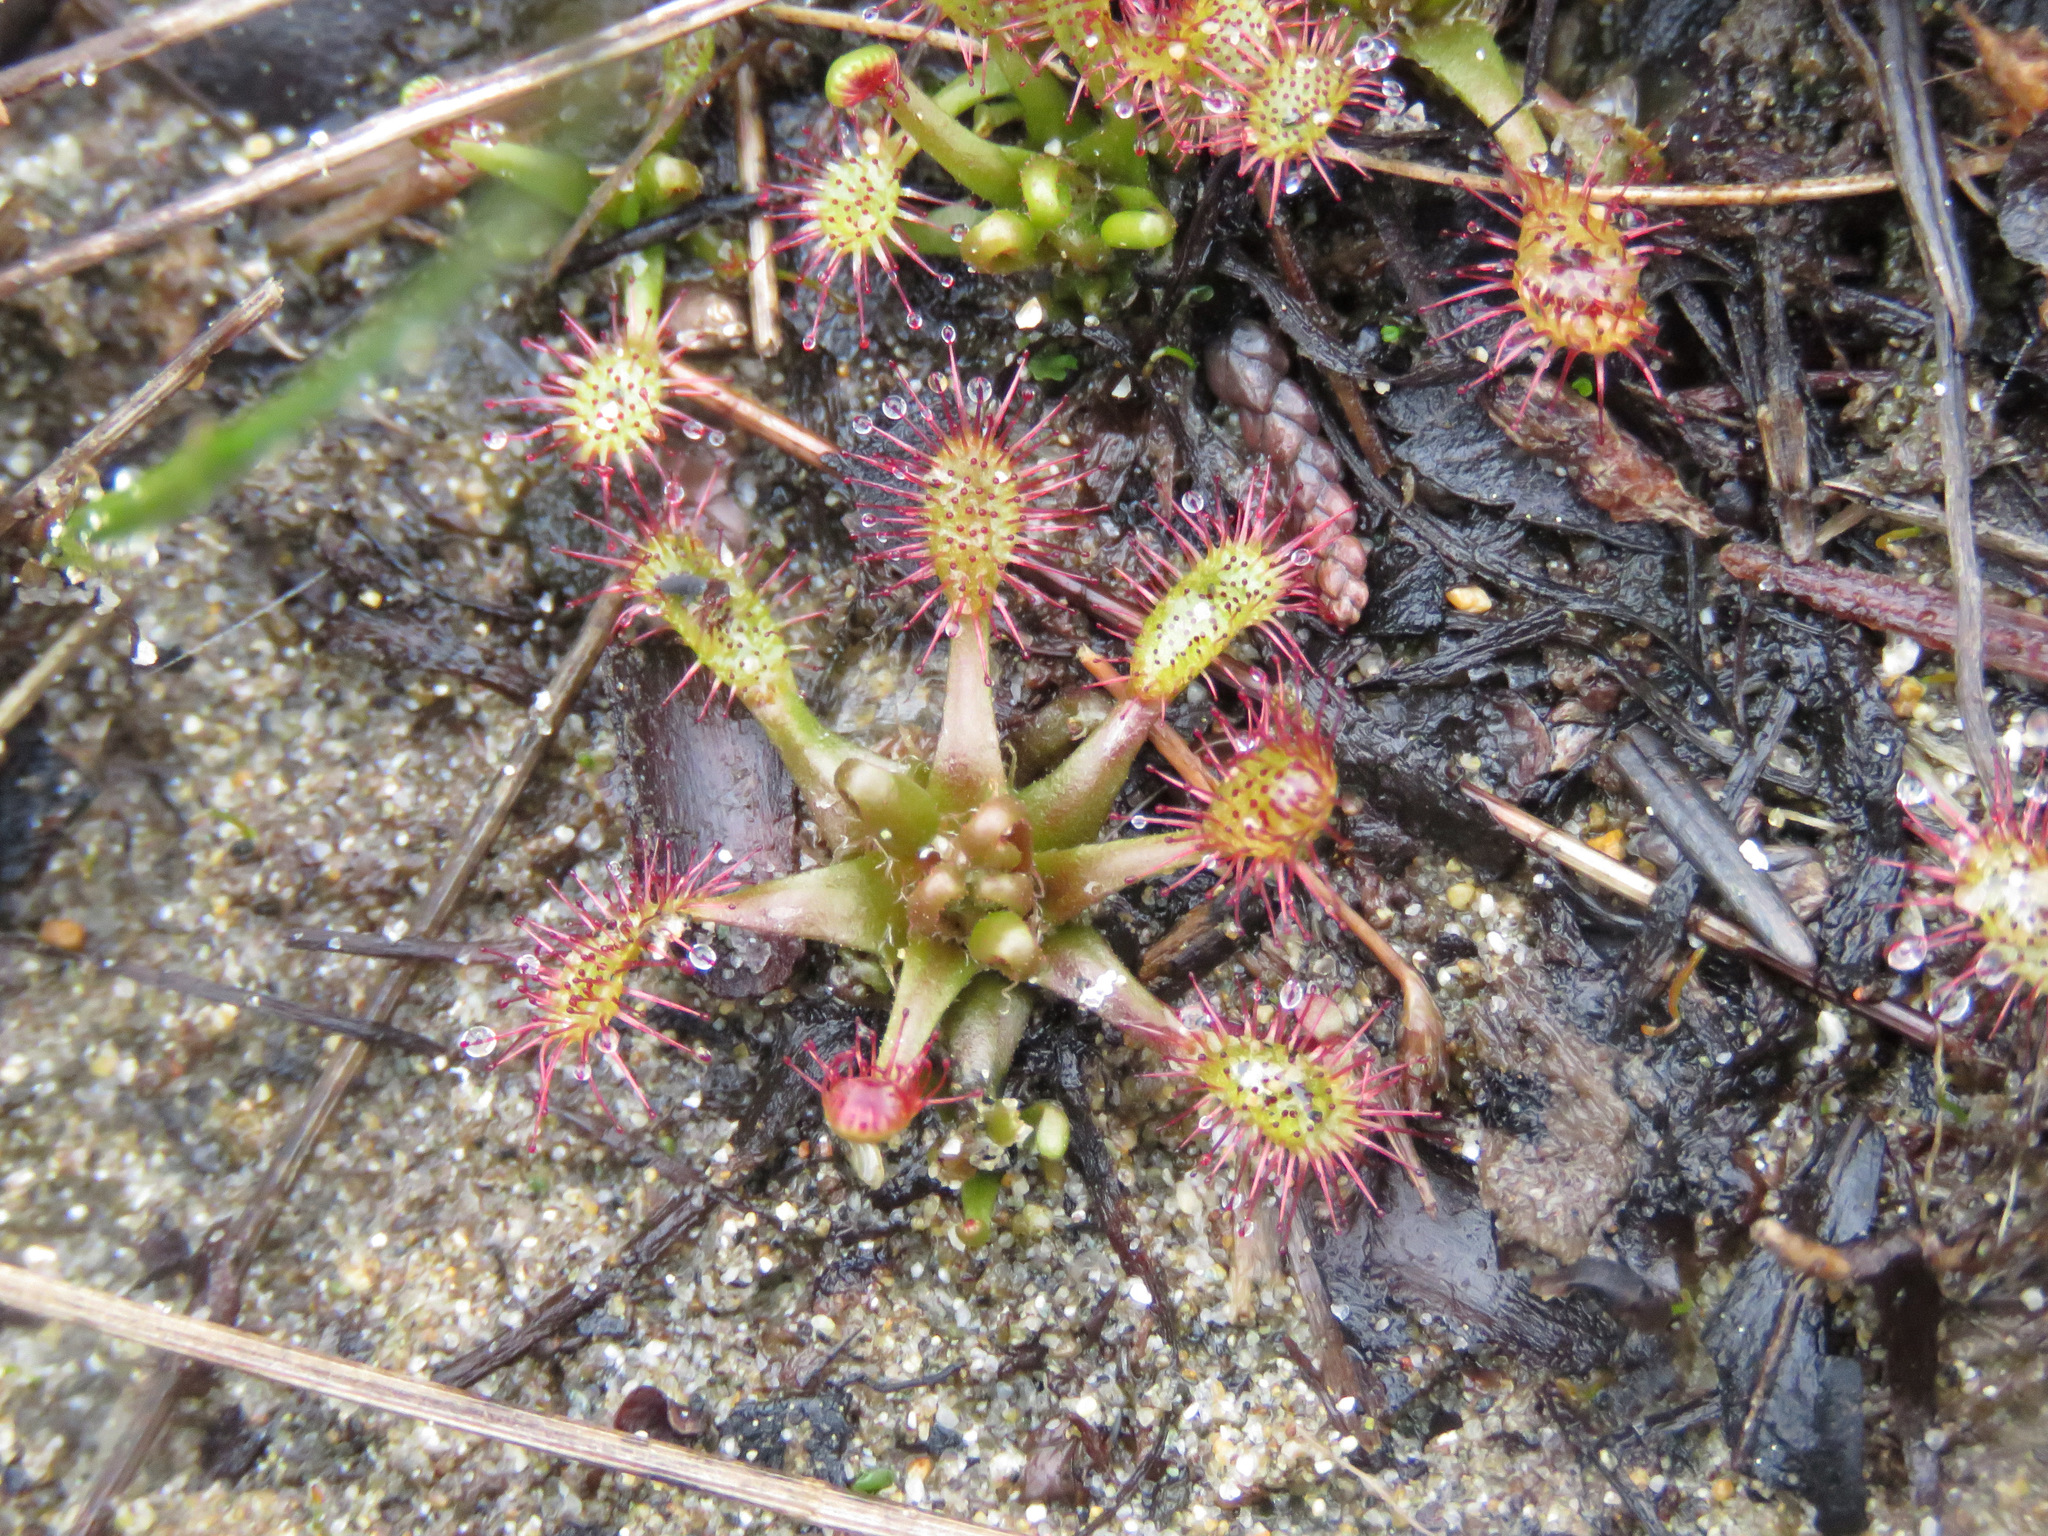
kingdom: Plantae
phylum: Tracheophyta
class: Magnoliopsida
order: Caryophyllales
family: Droseraceae
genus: Drosera
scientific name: Drosera anglica
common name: Great sundew
